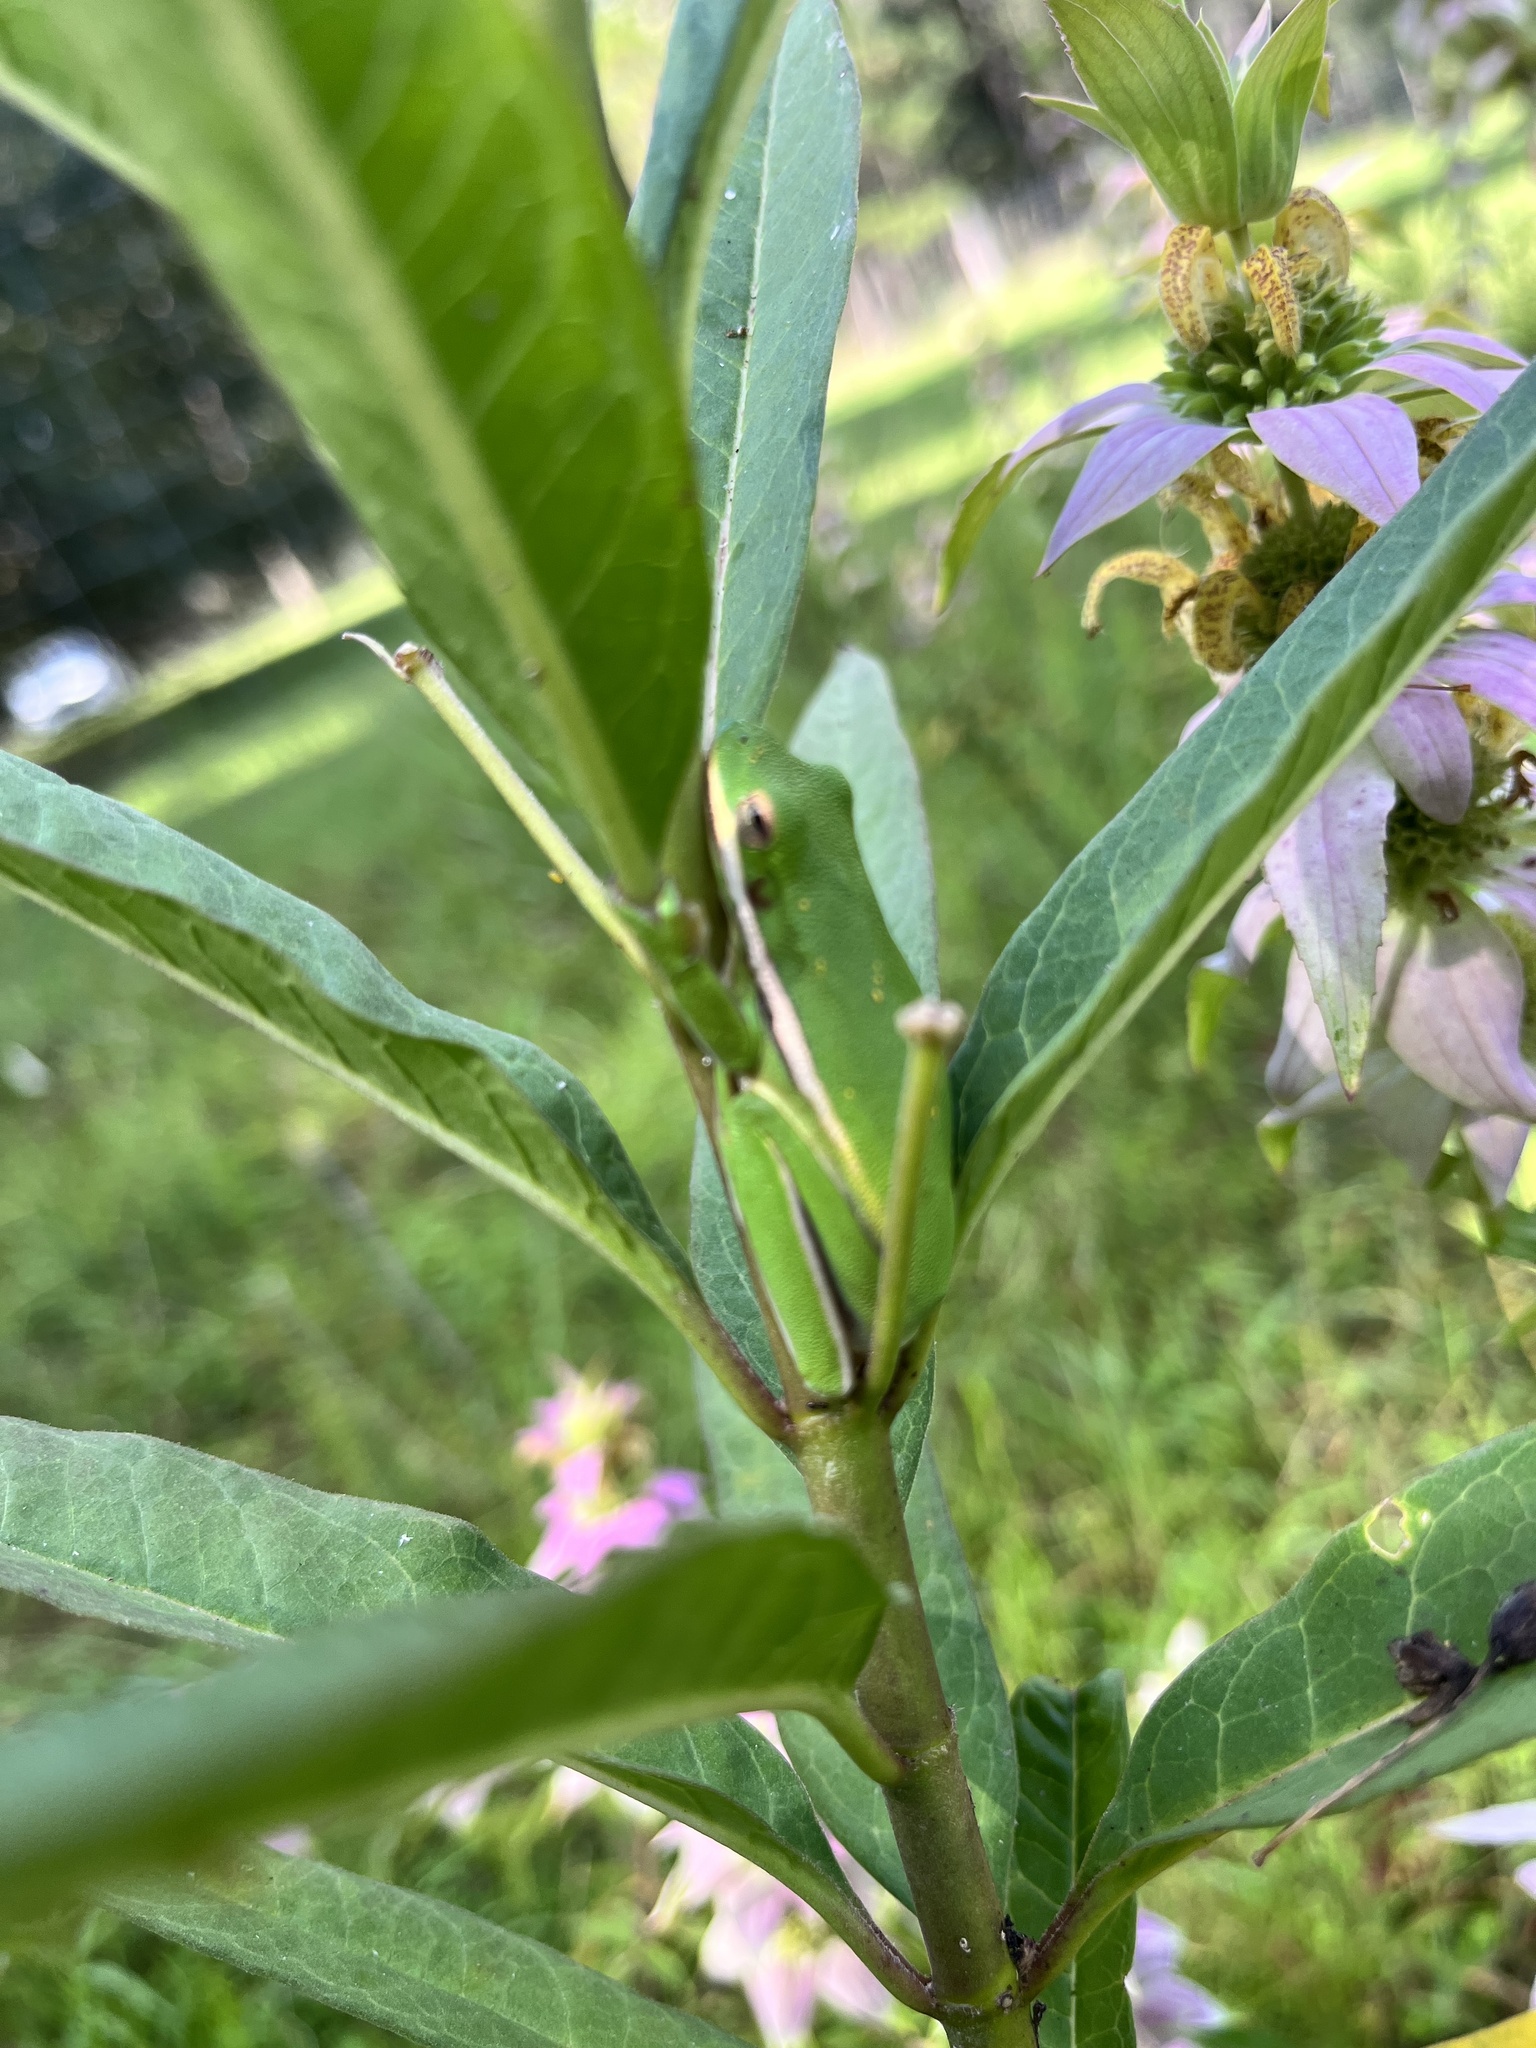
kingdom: Animalia
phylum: Chordata
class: Amphibia
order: Anura
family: Hylidae
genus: Dryophytes
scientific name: Dryophytes cinereus
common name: Green treefrog
